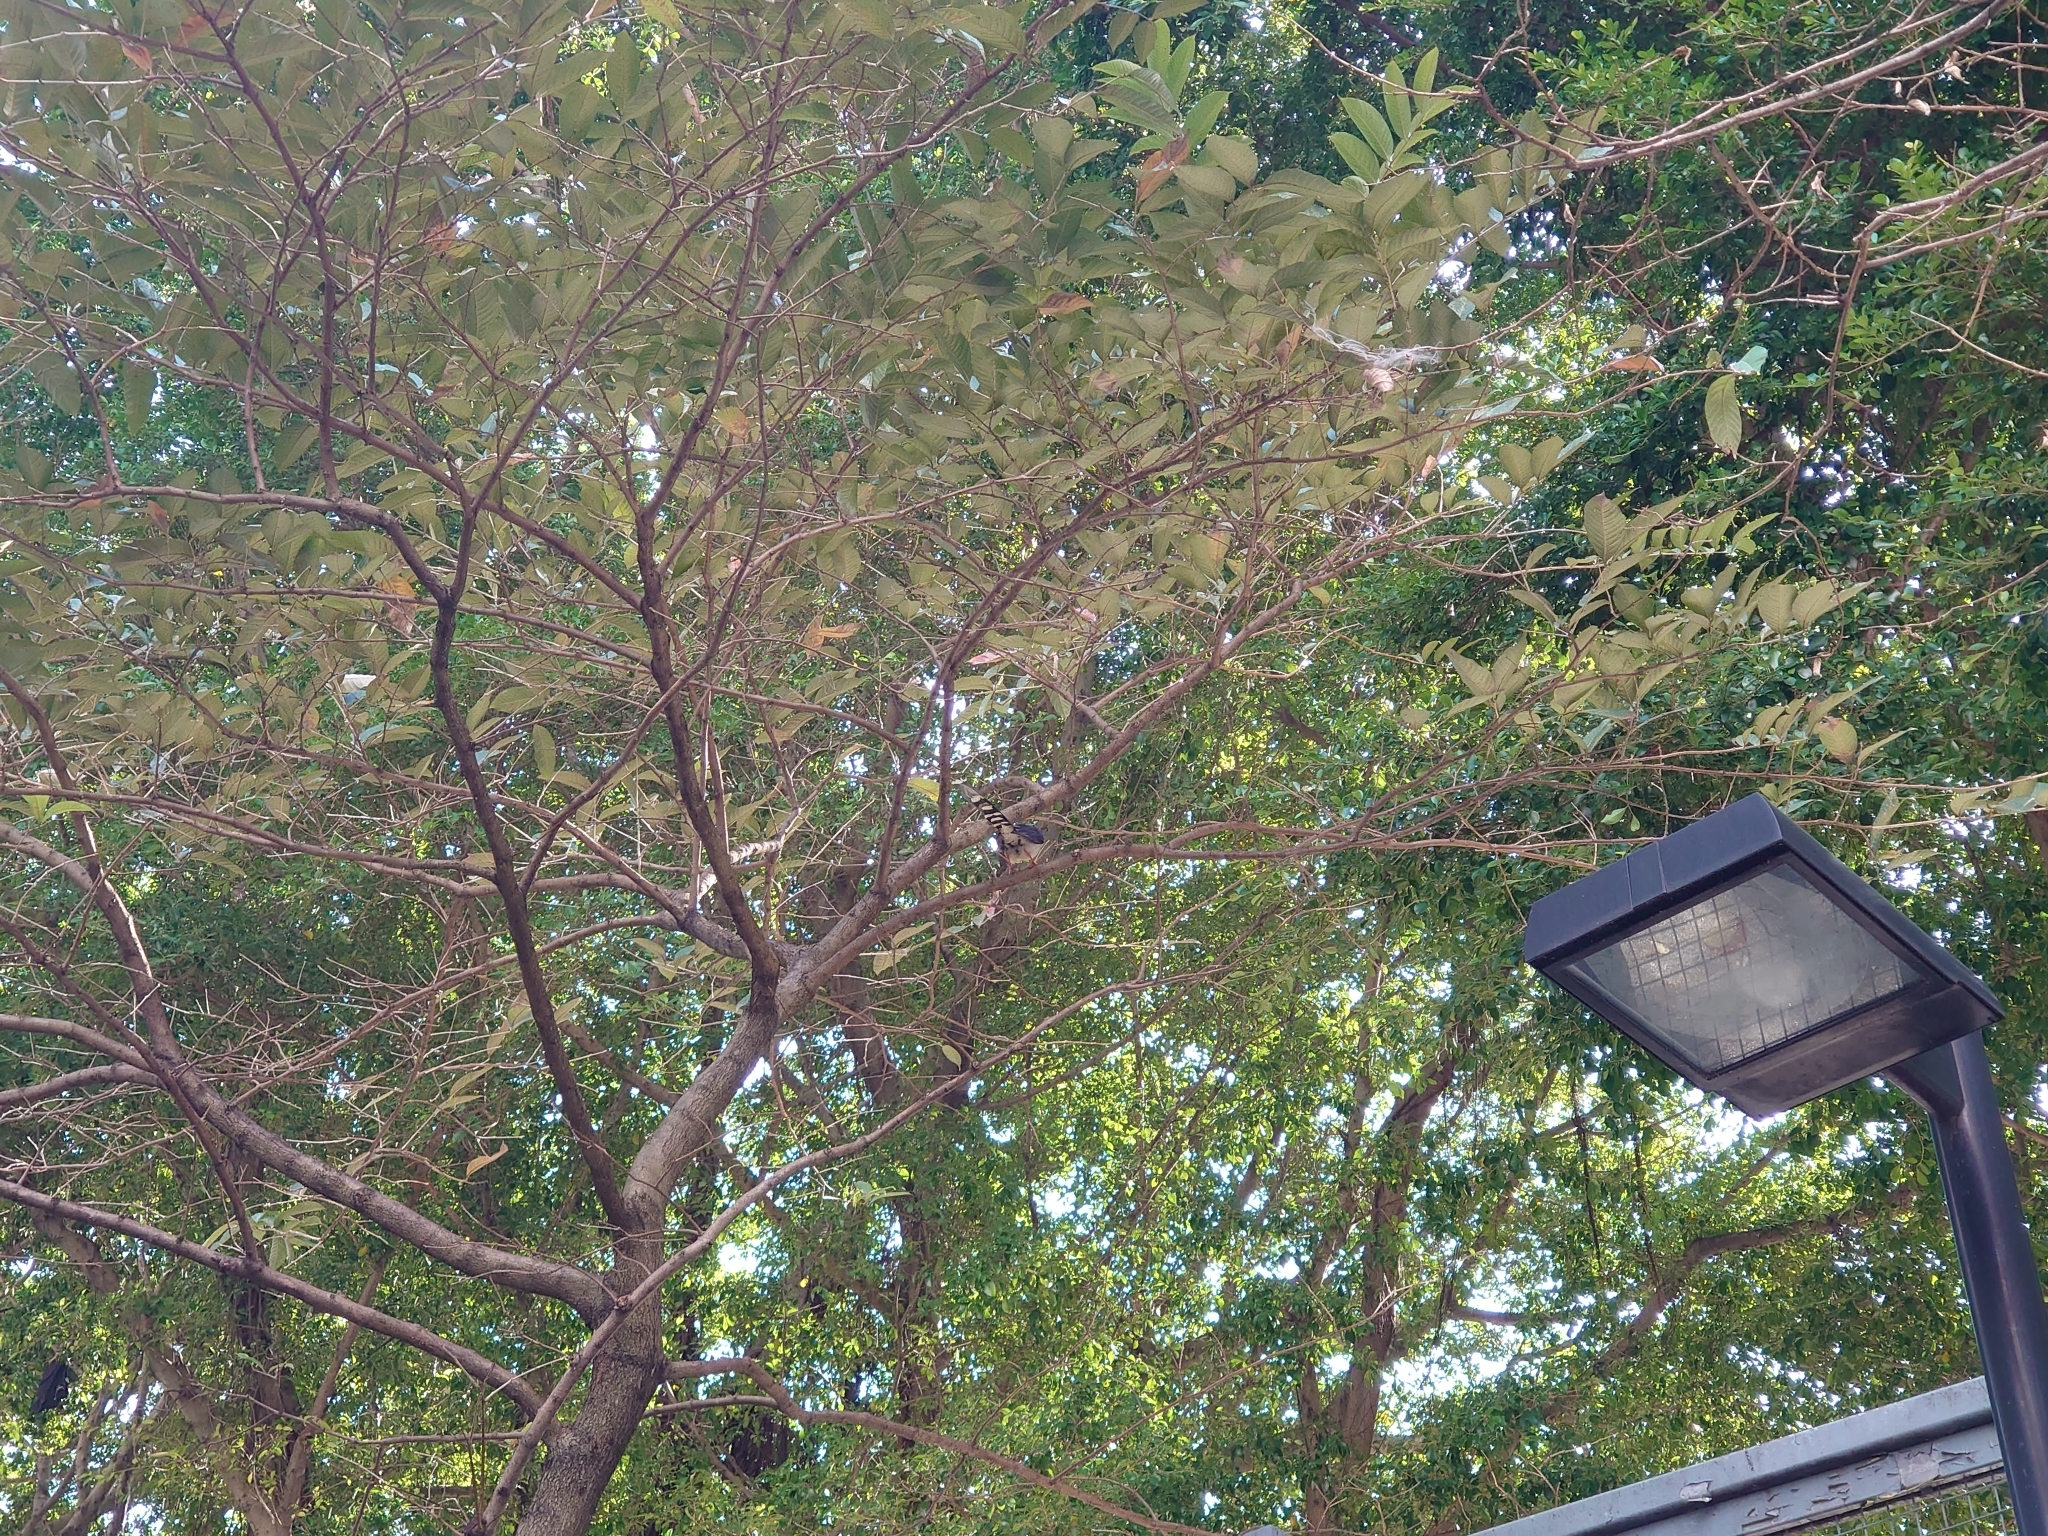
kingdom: Animalia
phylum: Chordata
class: Aves
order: Passeriformes
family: Corvidae
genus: Urocissa
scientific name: Urocissa erythroryncha
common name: Red-billed blue magpie
